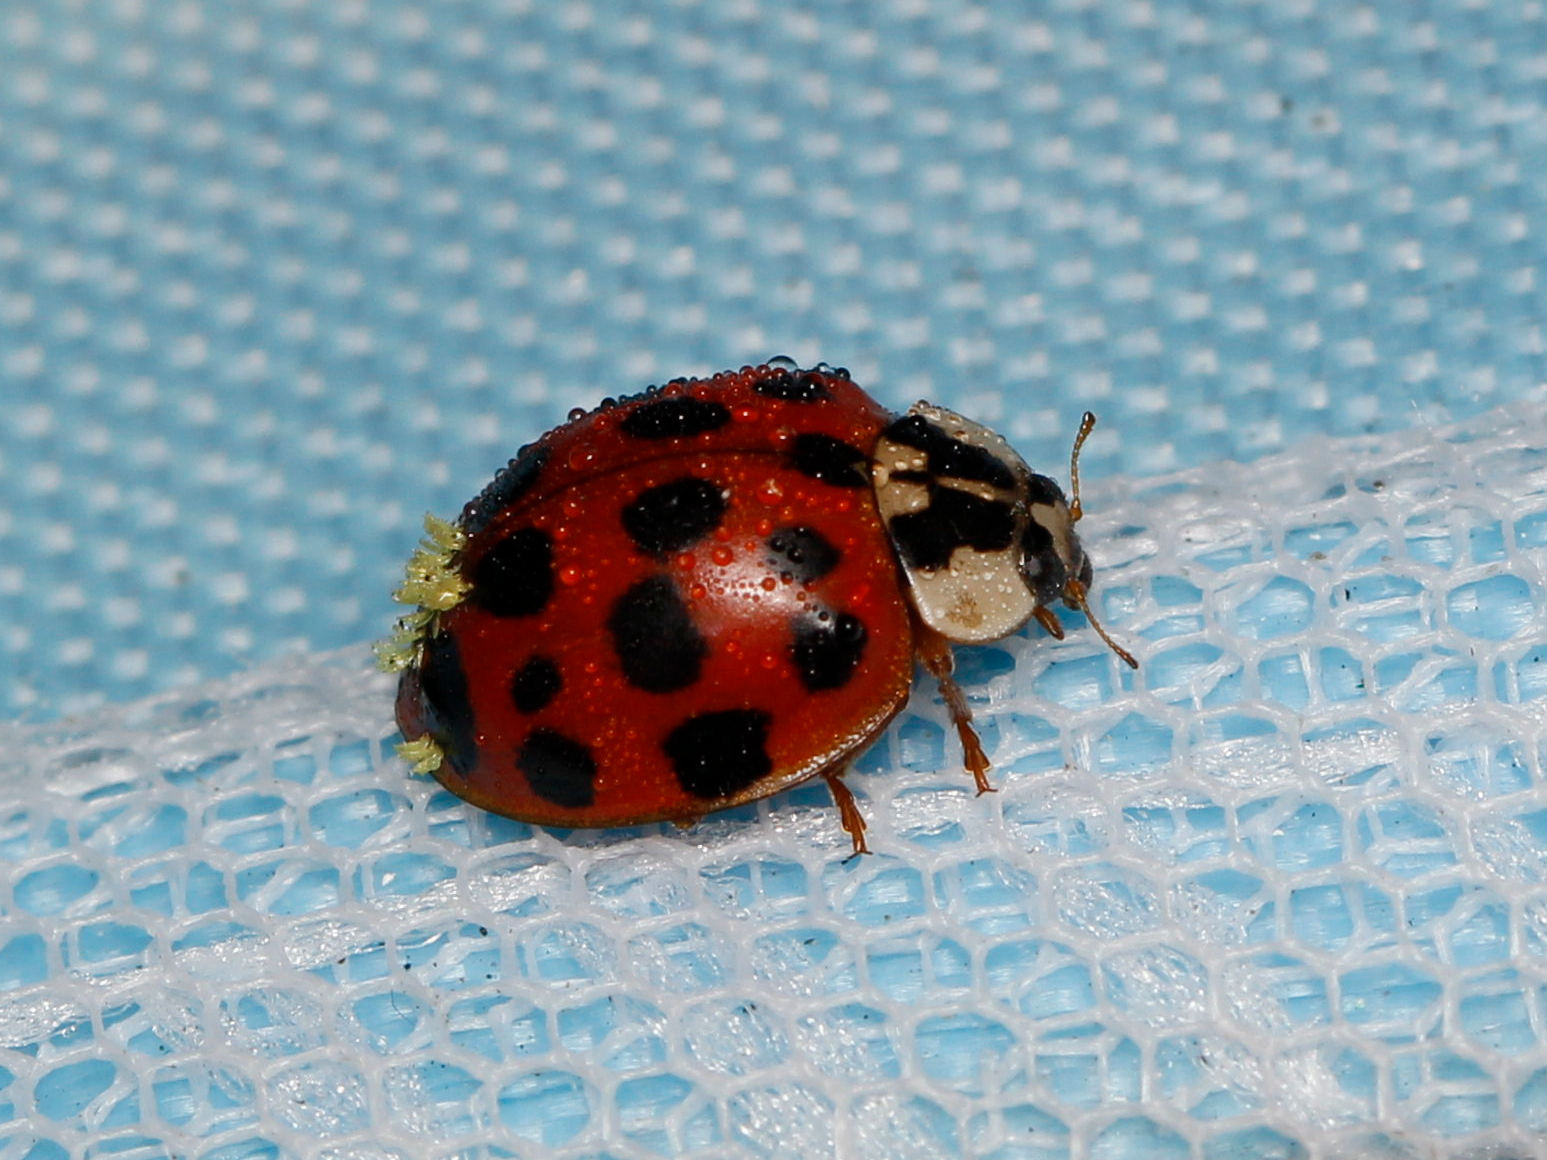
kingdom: Animalia
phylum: Arthropoda
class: Insecta
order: Coleoptera
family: Coccinellidae
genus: Harmonia
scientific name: Harmonia axyridis
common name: Harlequin ladybird
